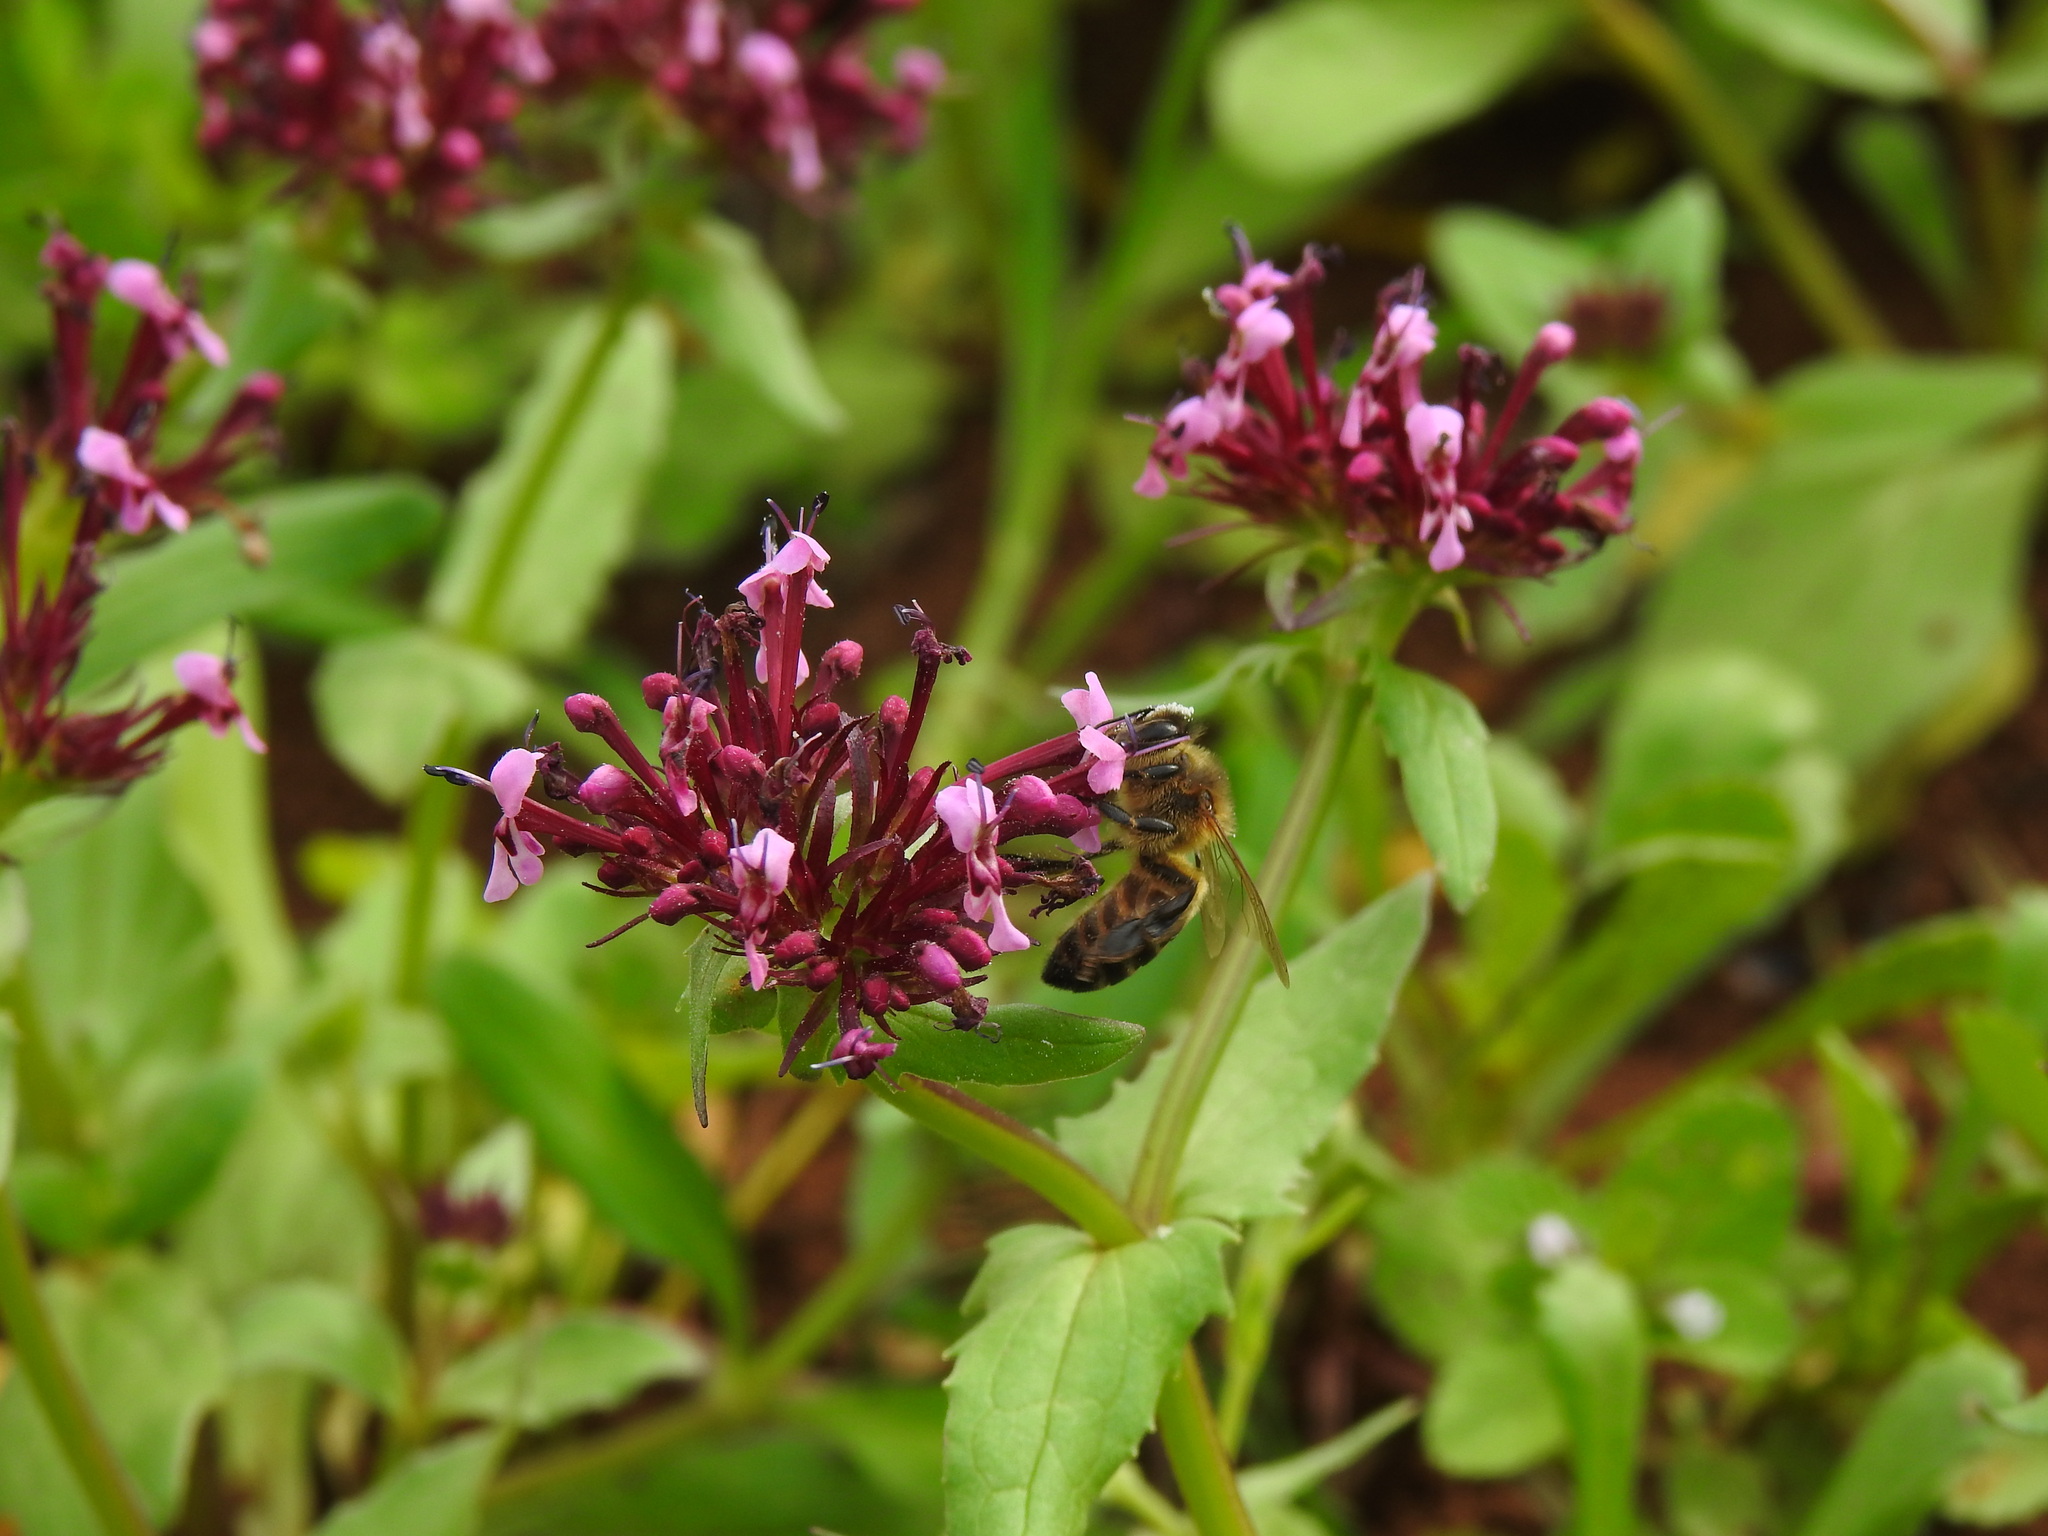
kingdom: Animalia
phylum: Arthropoda
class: Insecta
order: Hymenoptera
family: Apidae
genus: Apis
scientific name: Apis mellifera
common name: Honey bee
